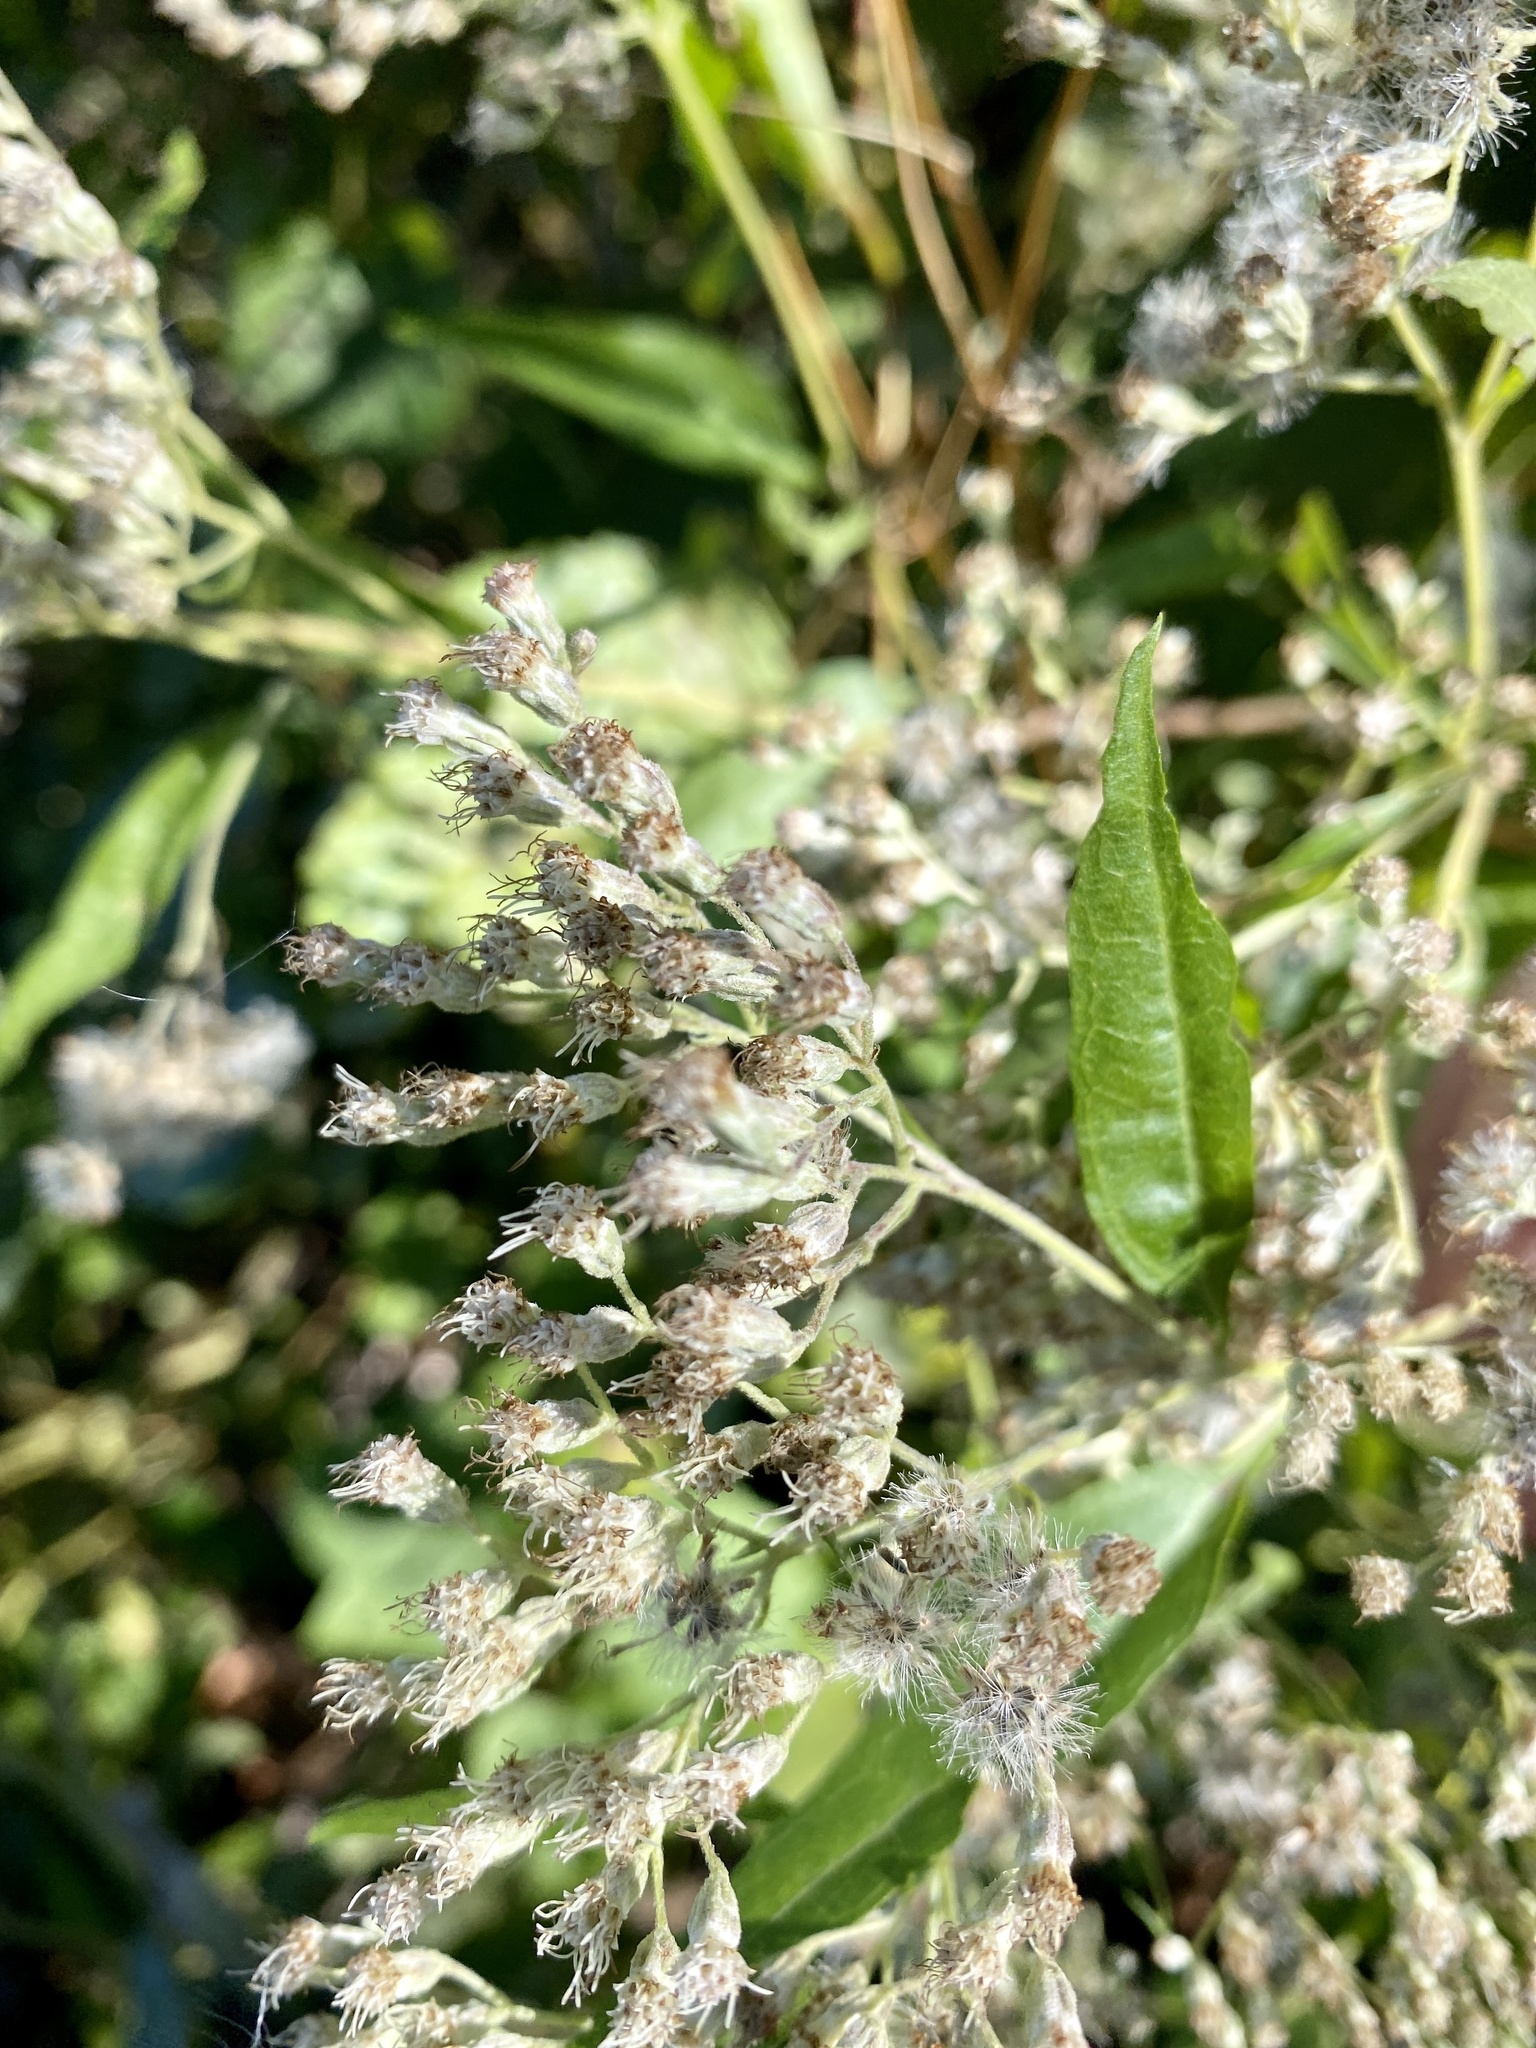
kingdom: Plantae
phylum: Tracheophyta
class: Magnoliopsida
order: Asterales
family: Asteraceae
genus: Baccharis
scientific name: Baccharis halimifolia
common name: Eastern baccharis
